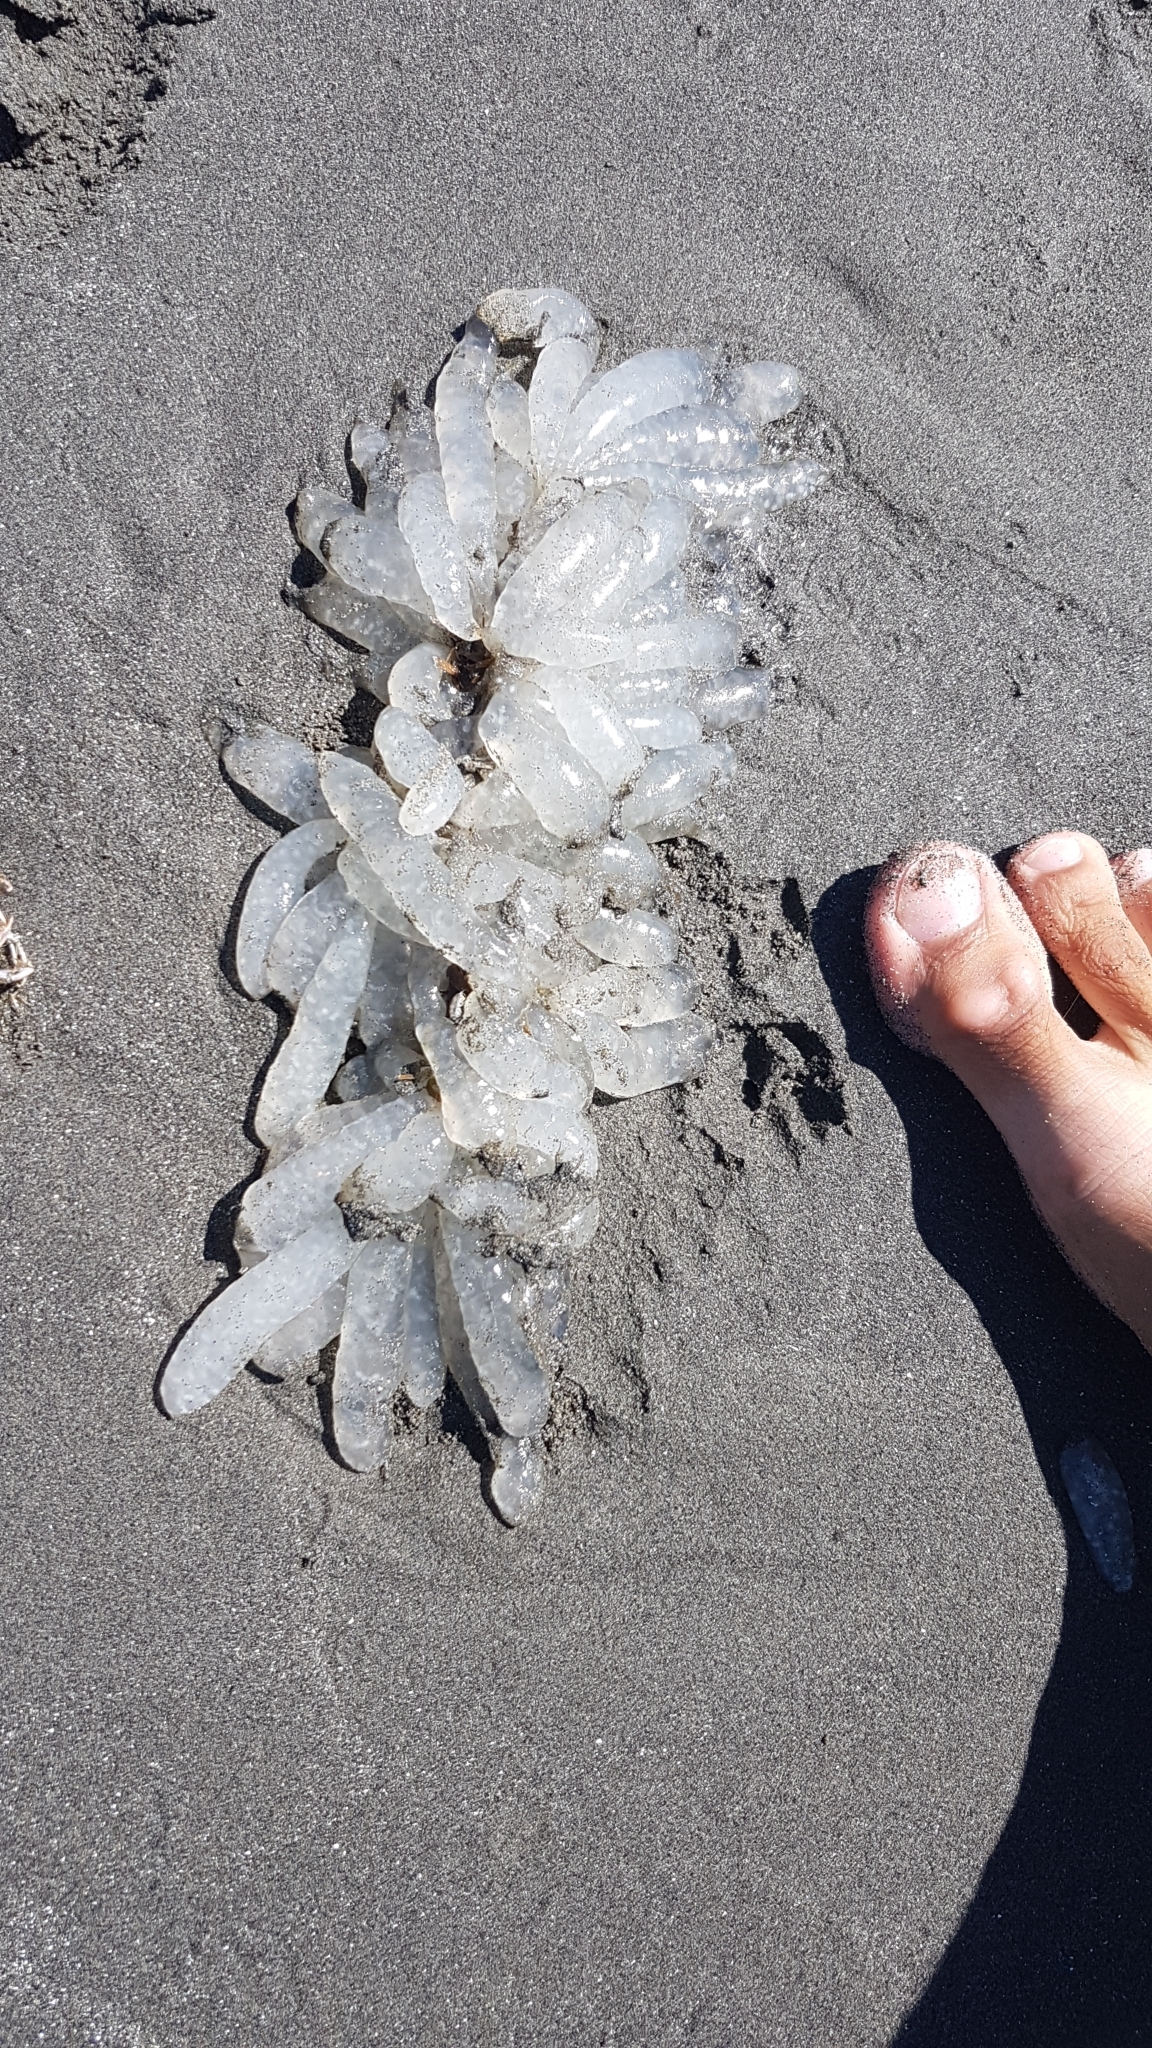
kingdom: Animalia
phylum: Mollusca
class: Cephalopoda
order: Myopsida
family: Loliginidae
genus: Doryteuthis
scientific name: Doryteuthis opalescens
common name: Opalescent inshore squid
